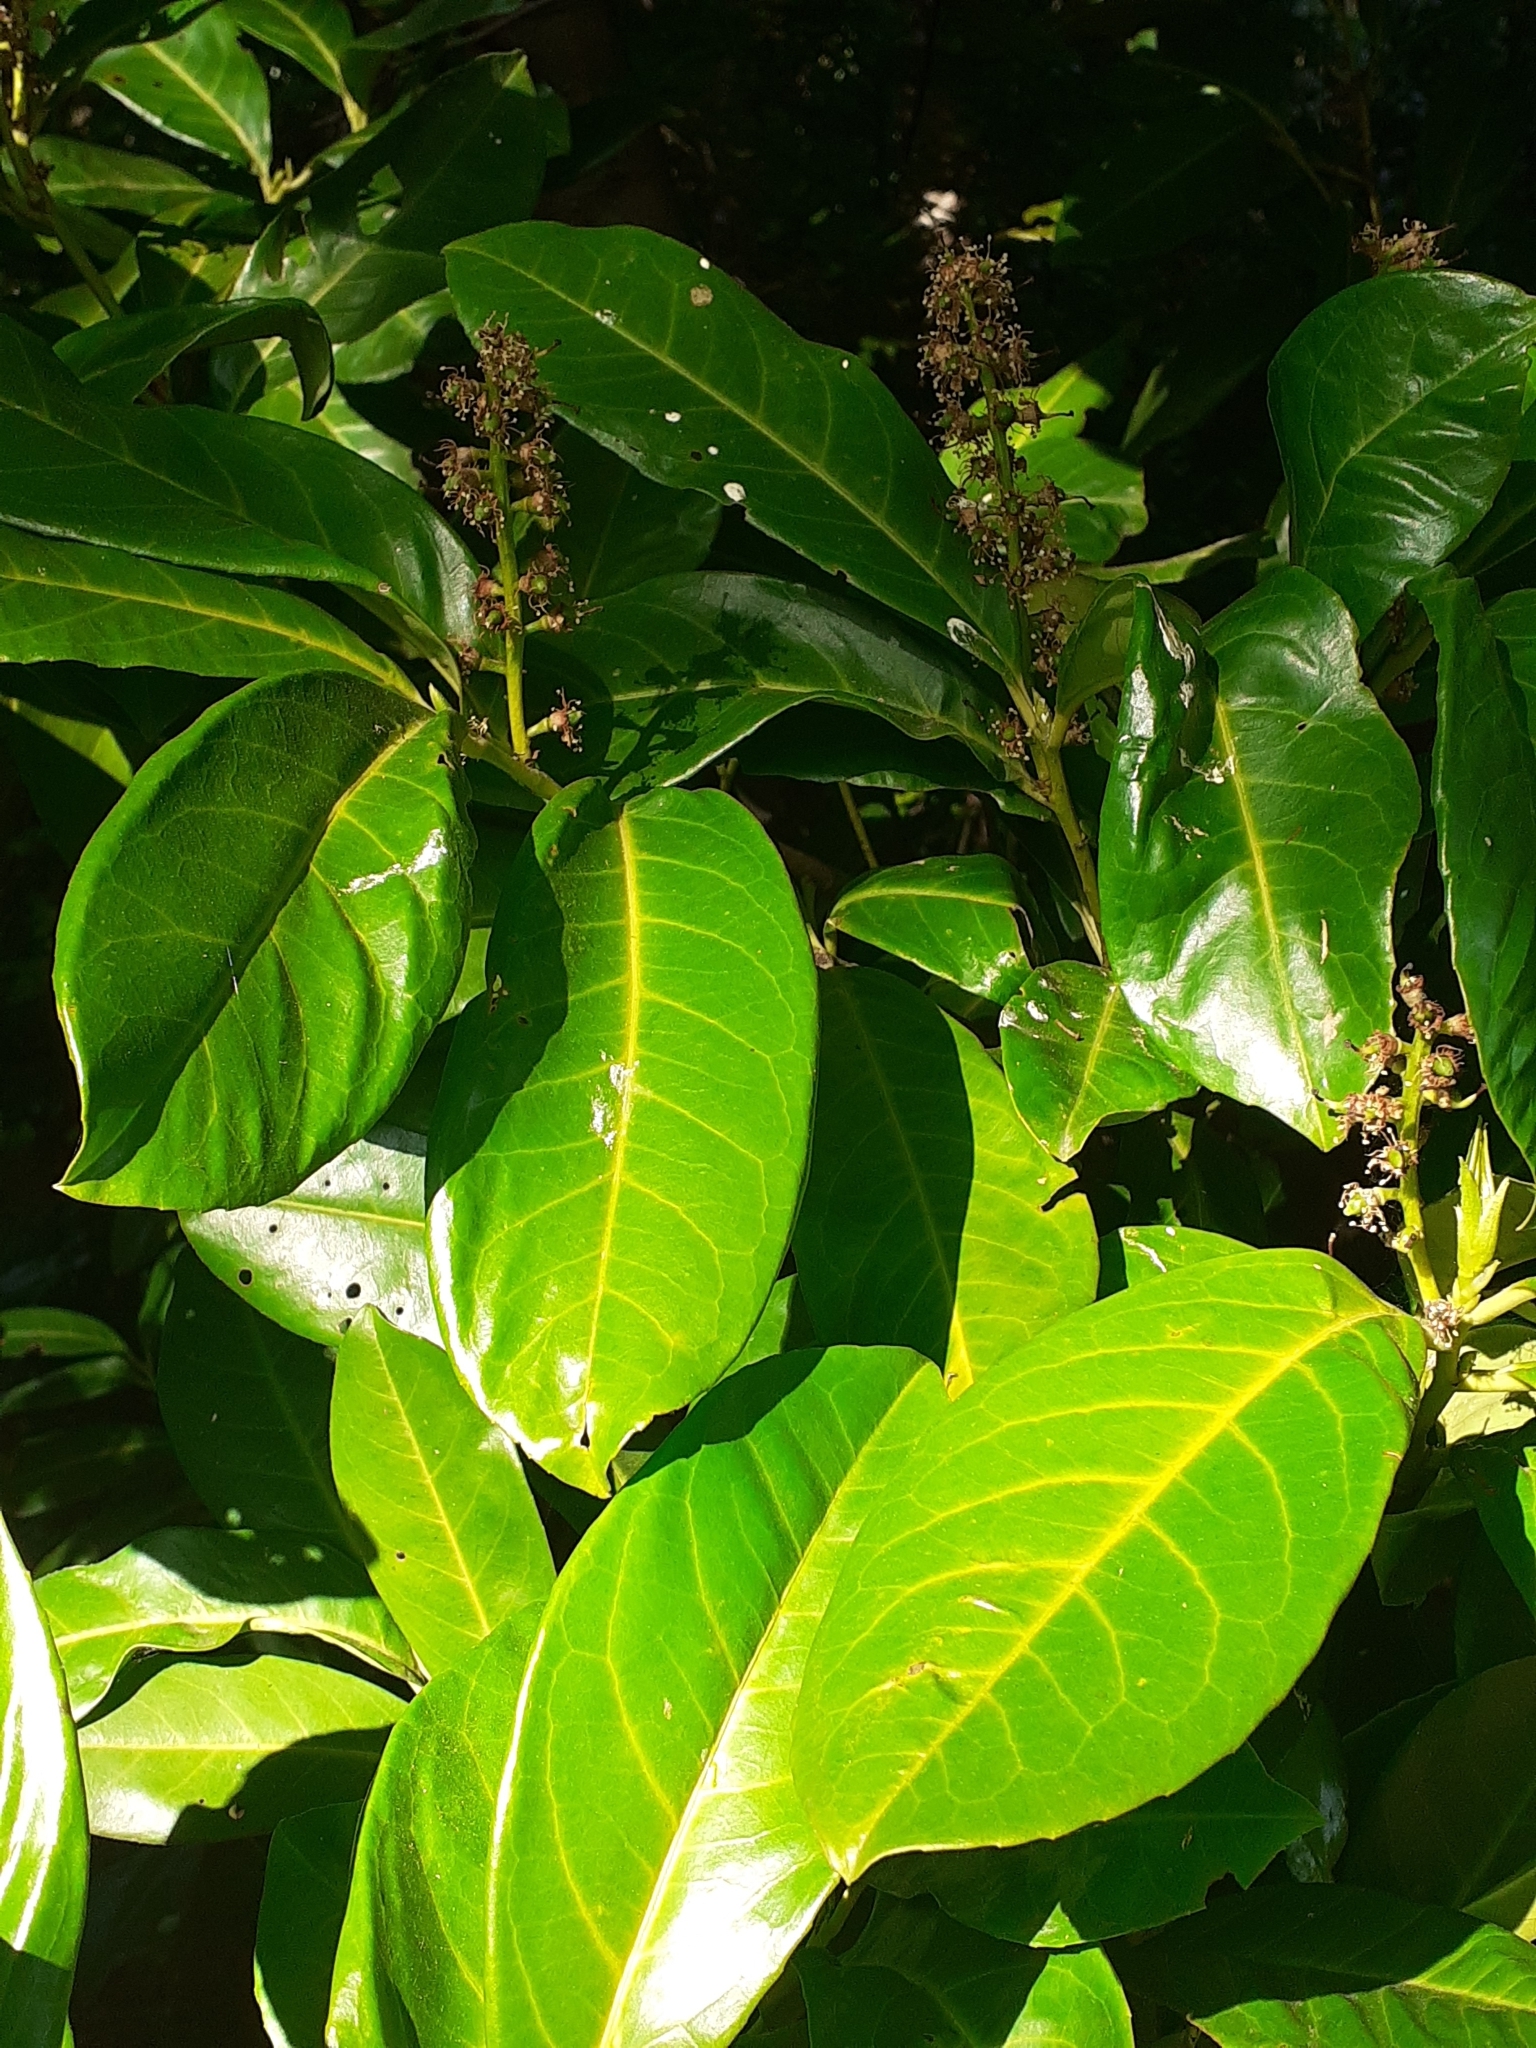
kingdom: Plantae
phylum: Tracheophyta
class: Magnoliopsida
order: Rosales
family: Rosaceae
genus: Prunus
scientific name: Prunus laurocerasus
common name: Cherry laurel
